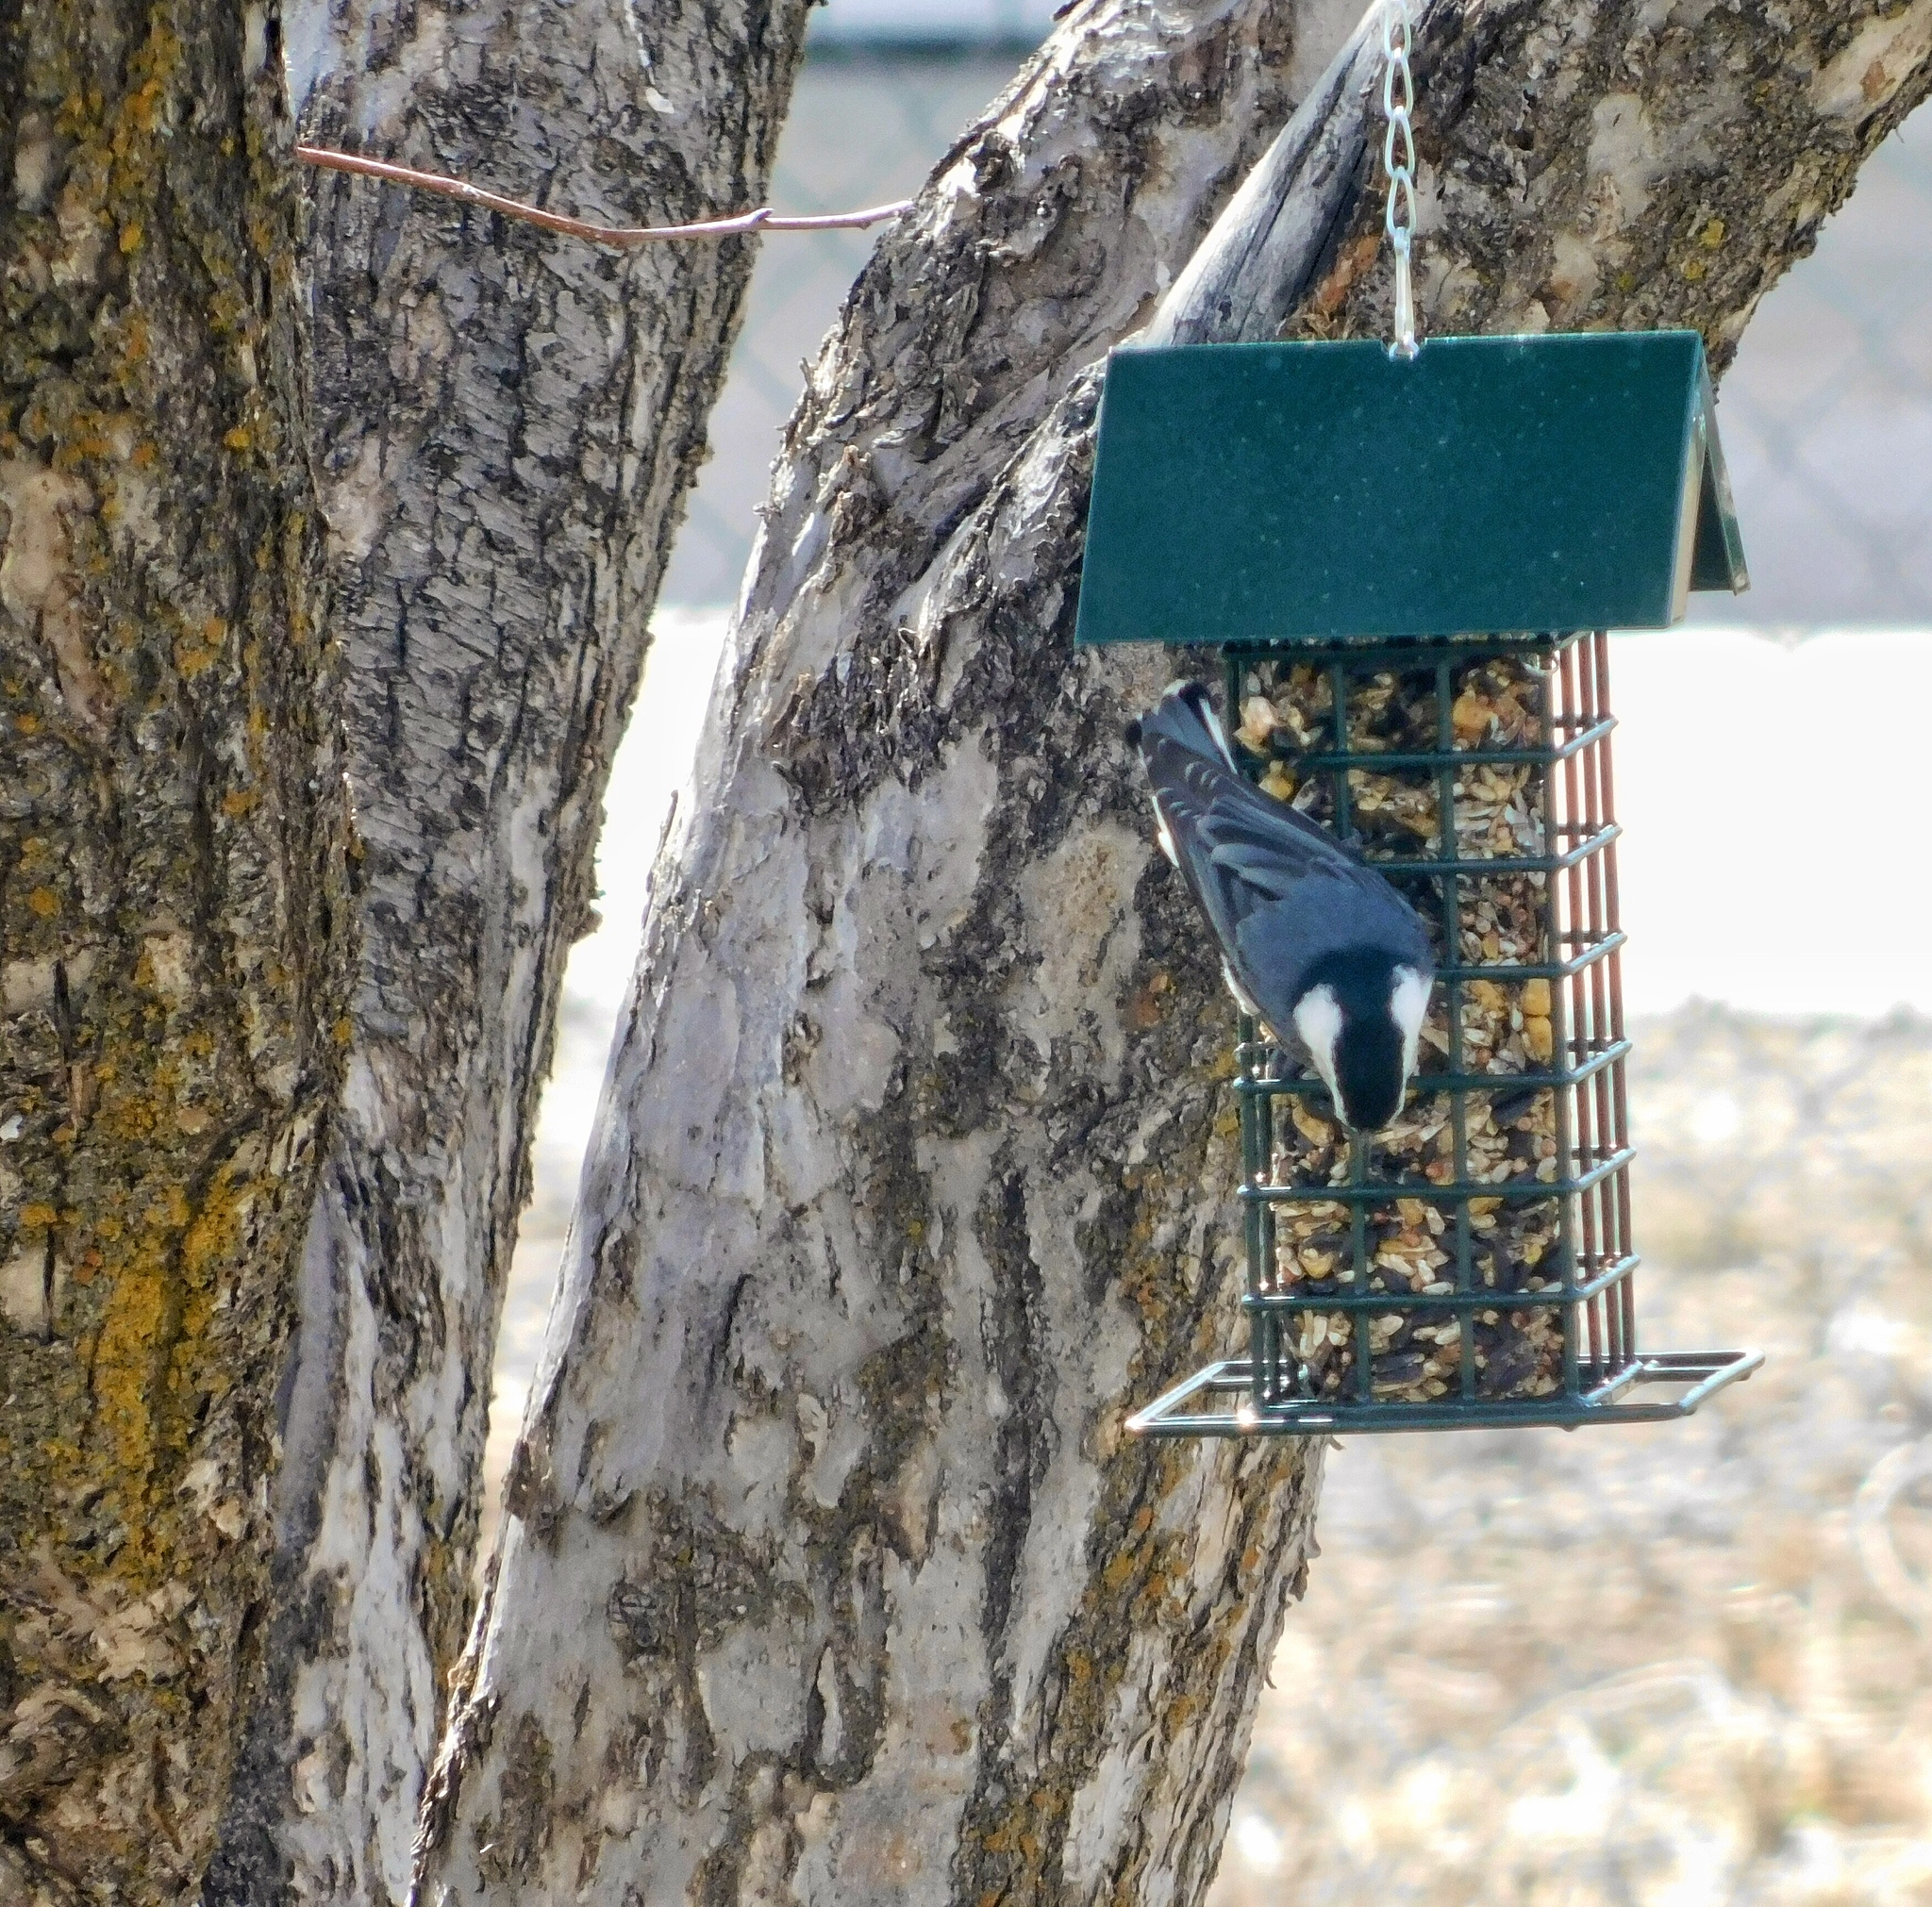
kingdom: Animalia
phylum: Chordata
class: Aves
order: Passeriformes
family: Sittidae
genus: Sitta
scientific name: Sitta carolinensis
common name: White-breasted nuthatch
